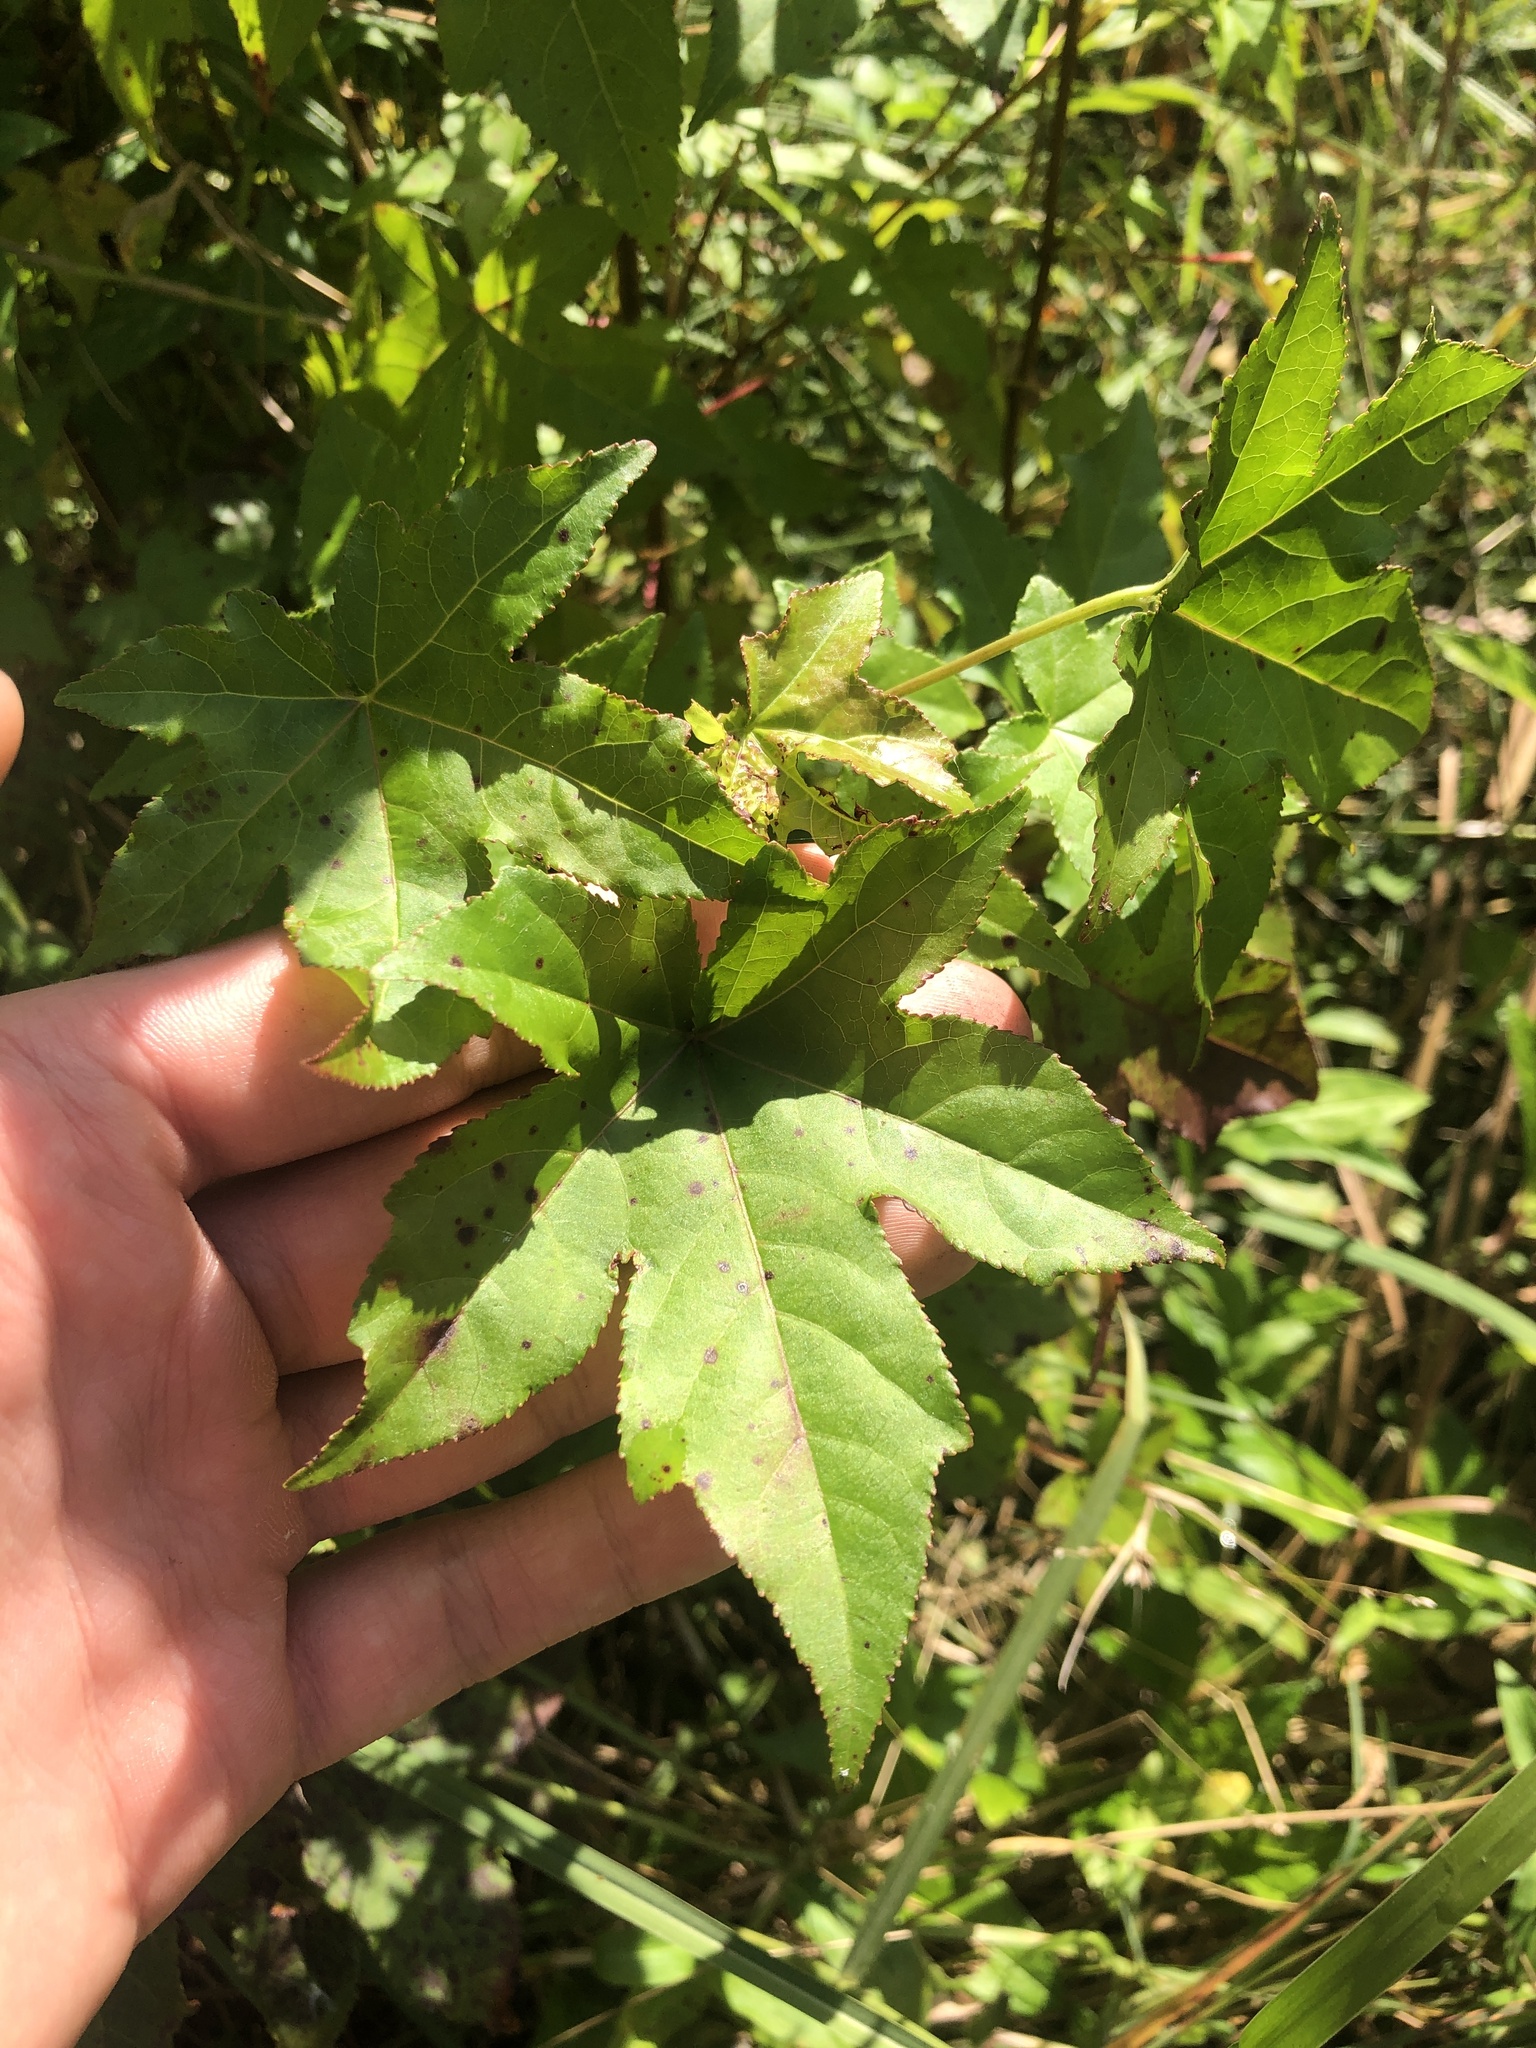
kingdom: Plantae
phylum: Tracheophyta
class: Magnoliopsida
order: Saxifragales
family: Altingiaceae
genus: Liquidambar
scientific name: Liquidambar styraciflua
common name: Sweet gum
